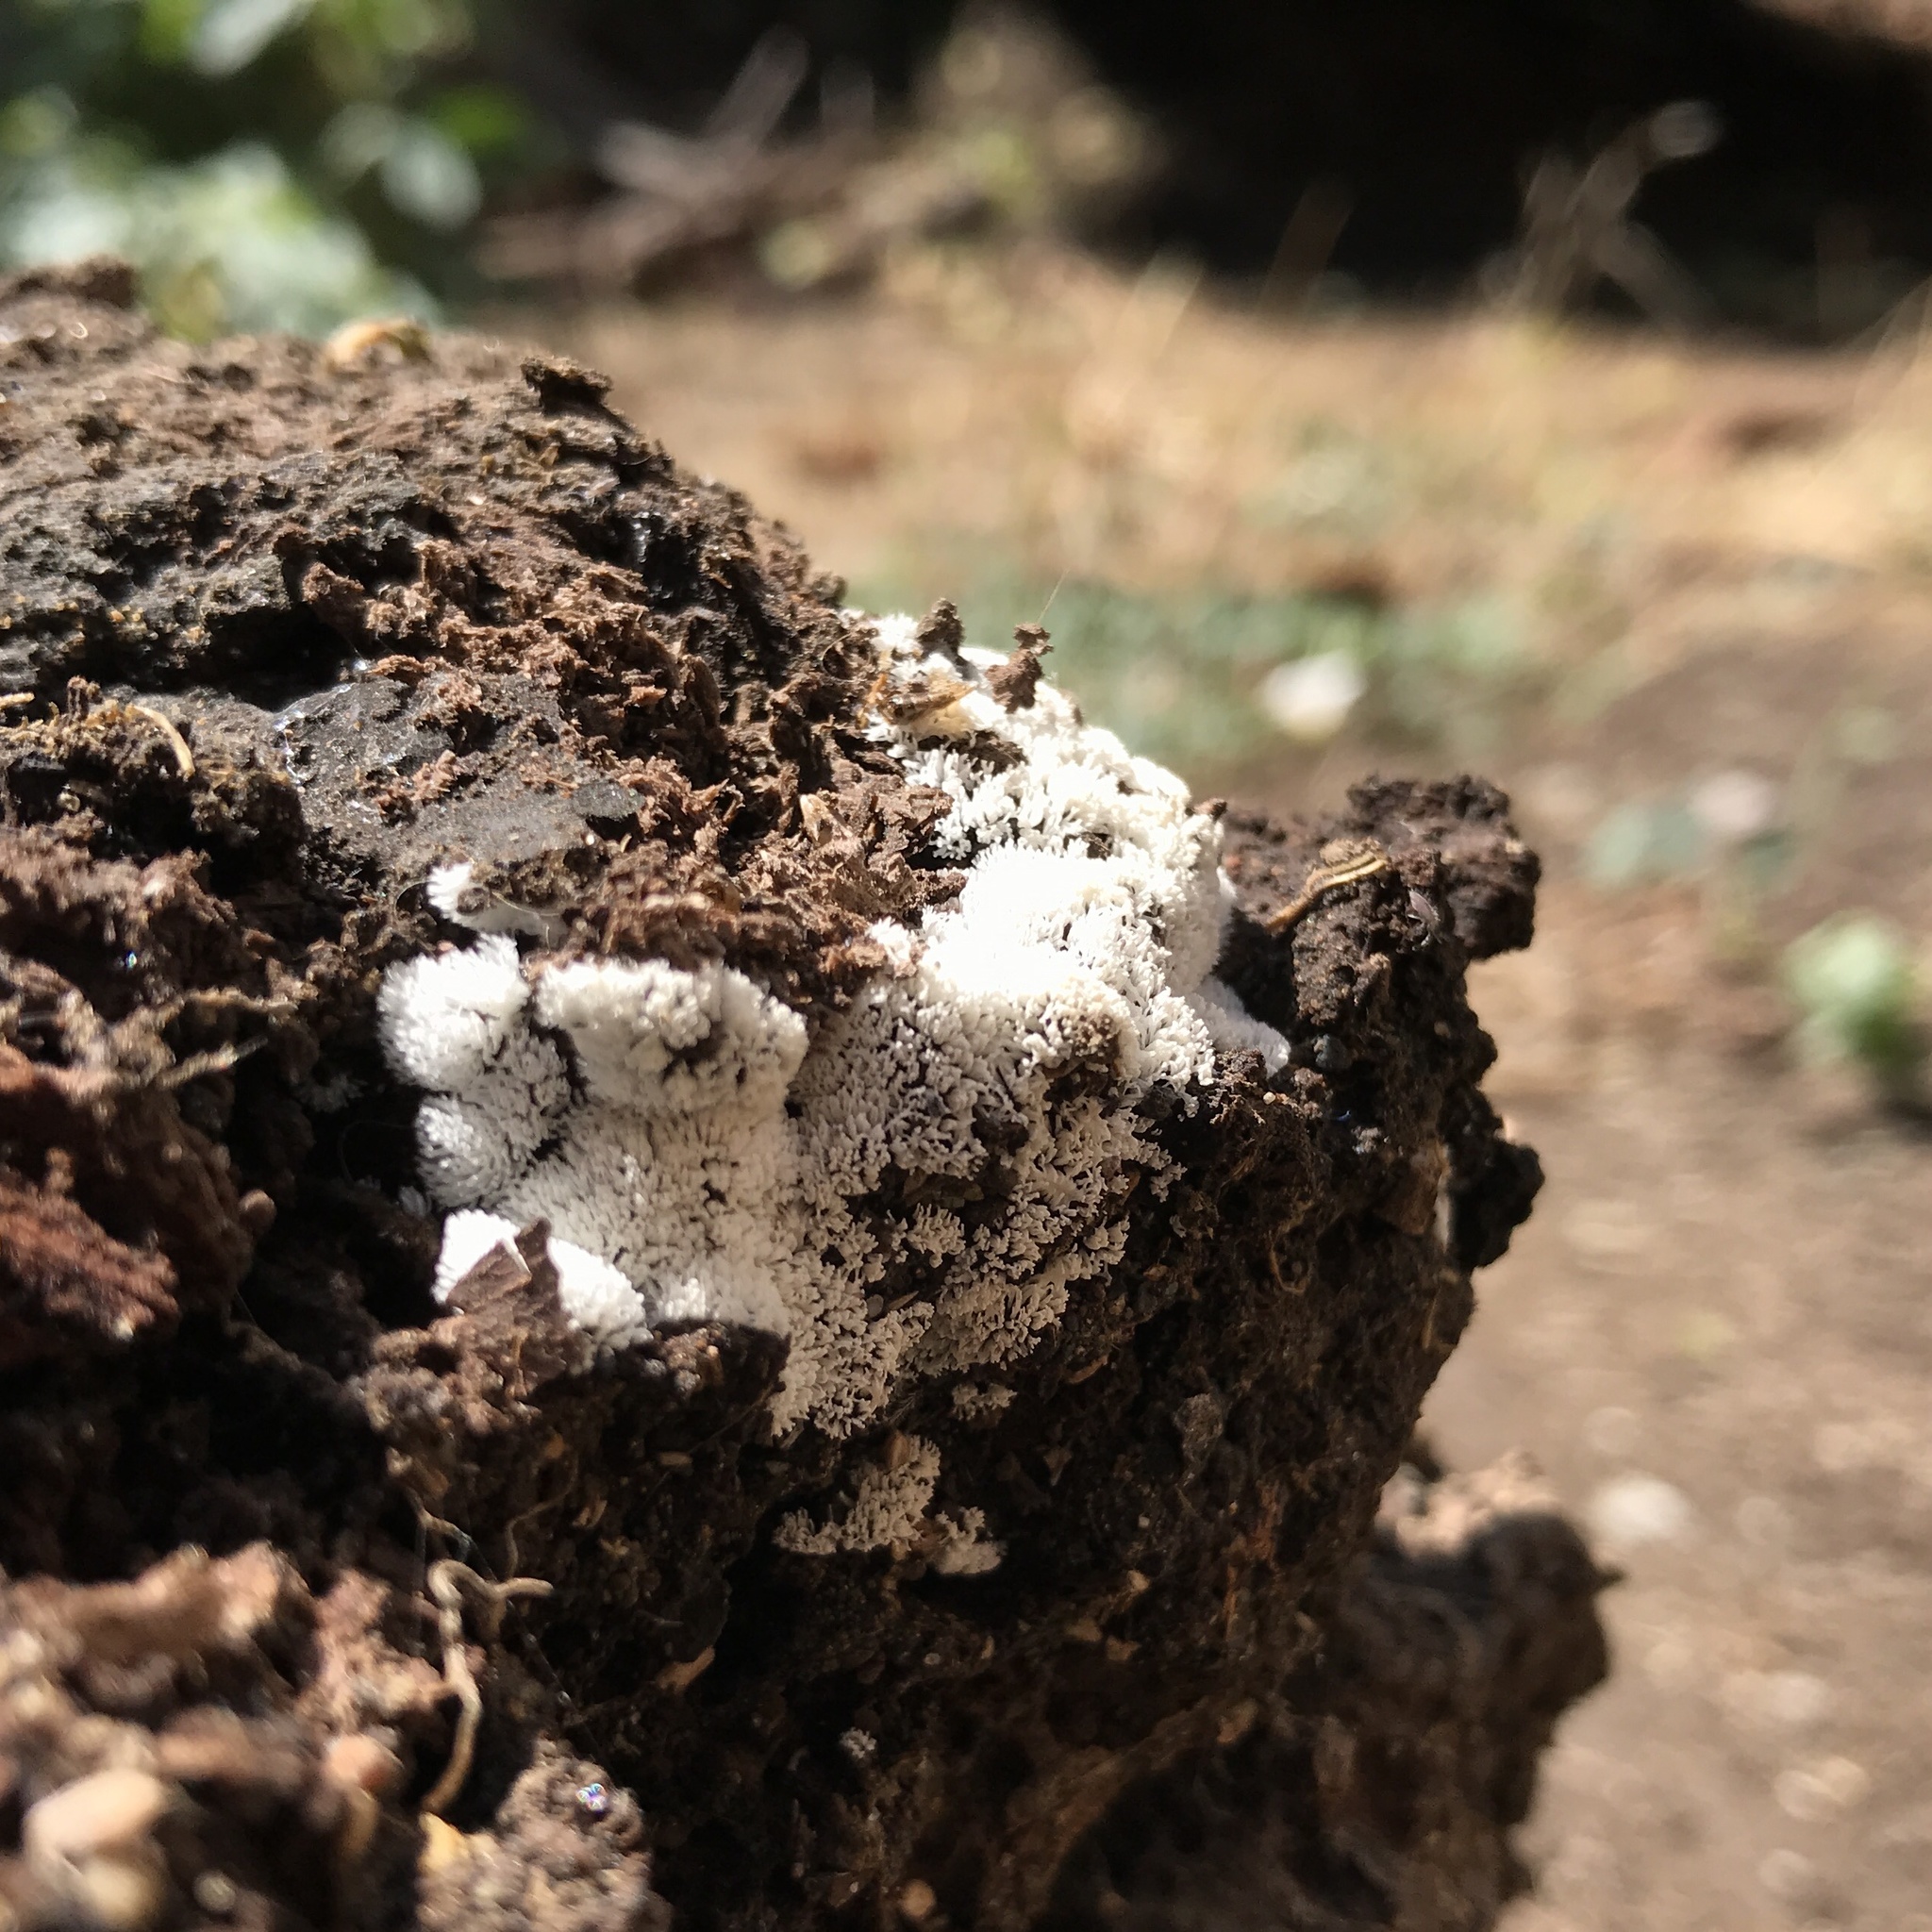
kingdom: Protozoa
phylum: Mycetozoa
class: Protosteliomycetes
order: Ceratiomyxales
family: Ceratiomyxaceae
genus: Ceratiomyxa
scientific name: Ceratiomyxa fruticulosa
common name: Honeycomb coral slime mold
